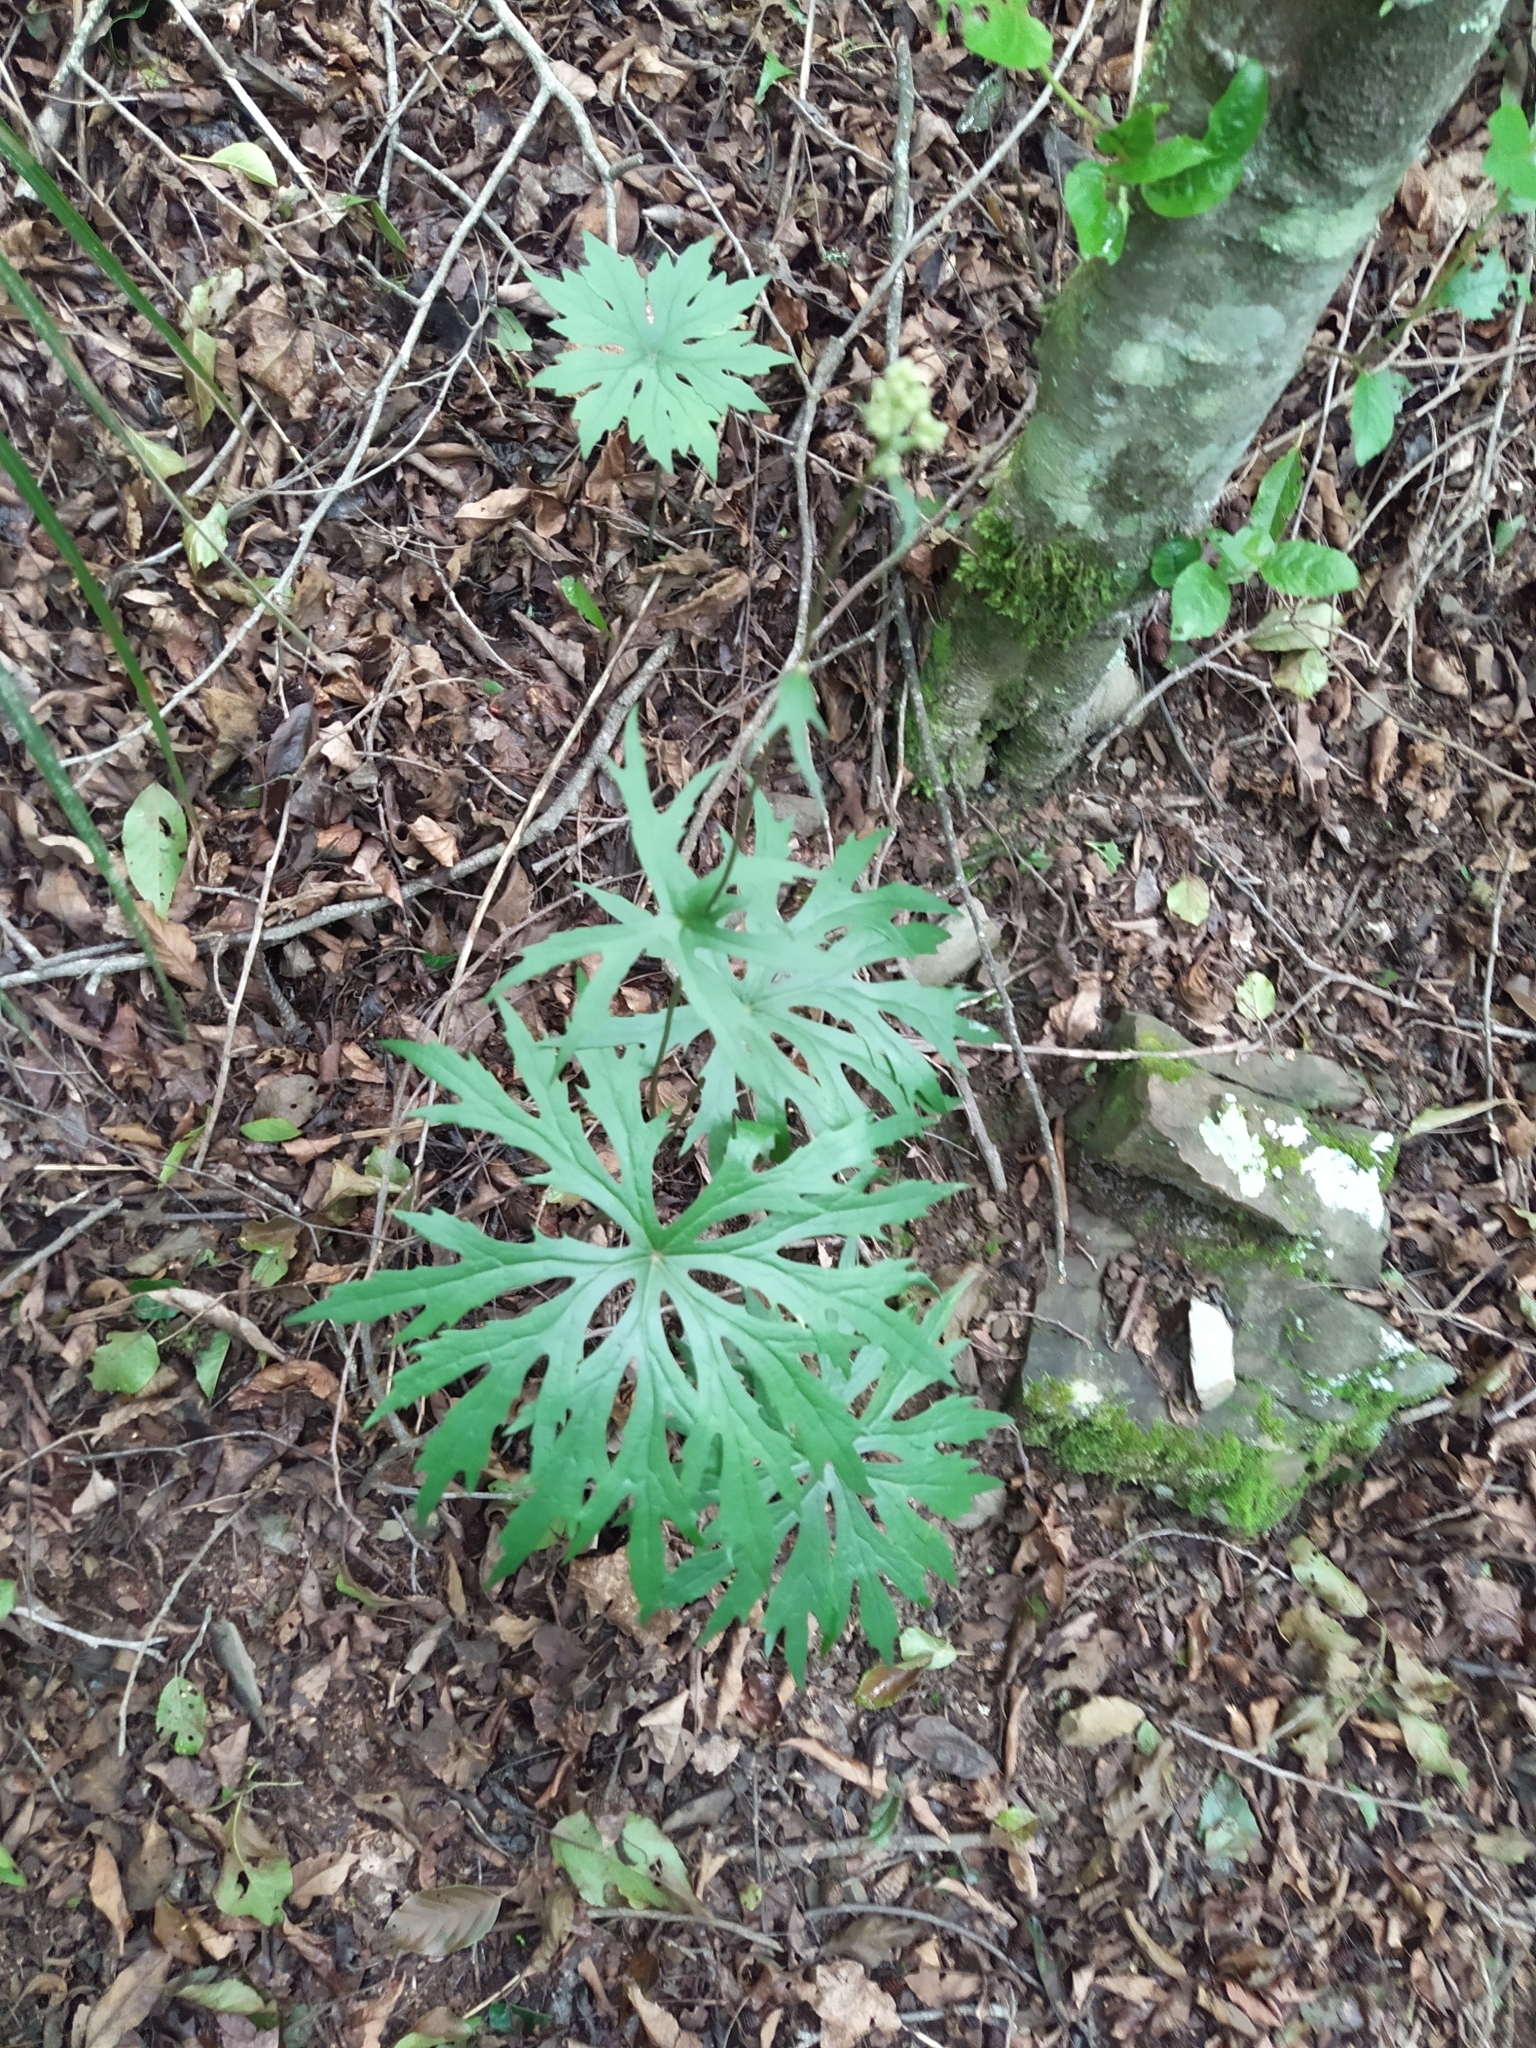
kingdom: Plantae
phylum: Tracheophyta
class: Magnoliopsida
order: Asterales
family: Asteraceae
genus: Syneilesis
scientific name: Syneilesis subglabrata
